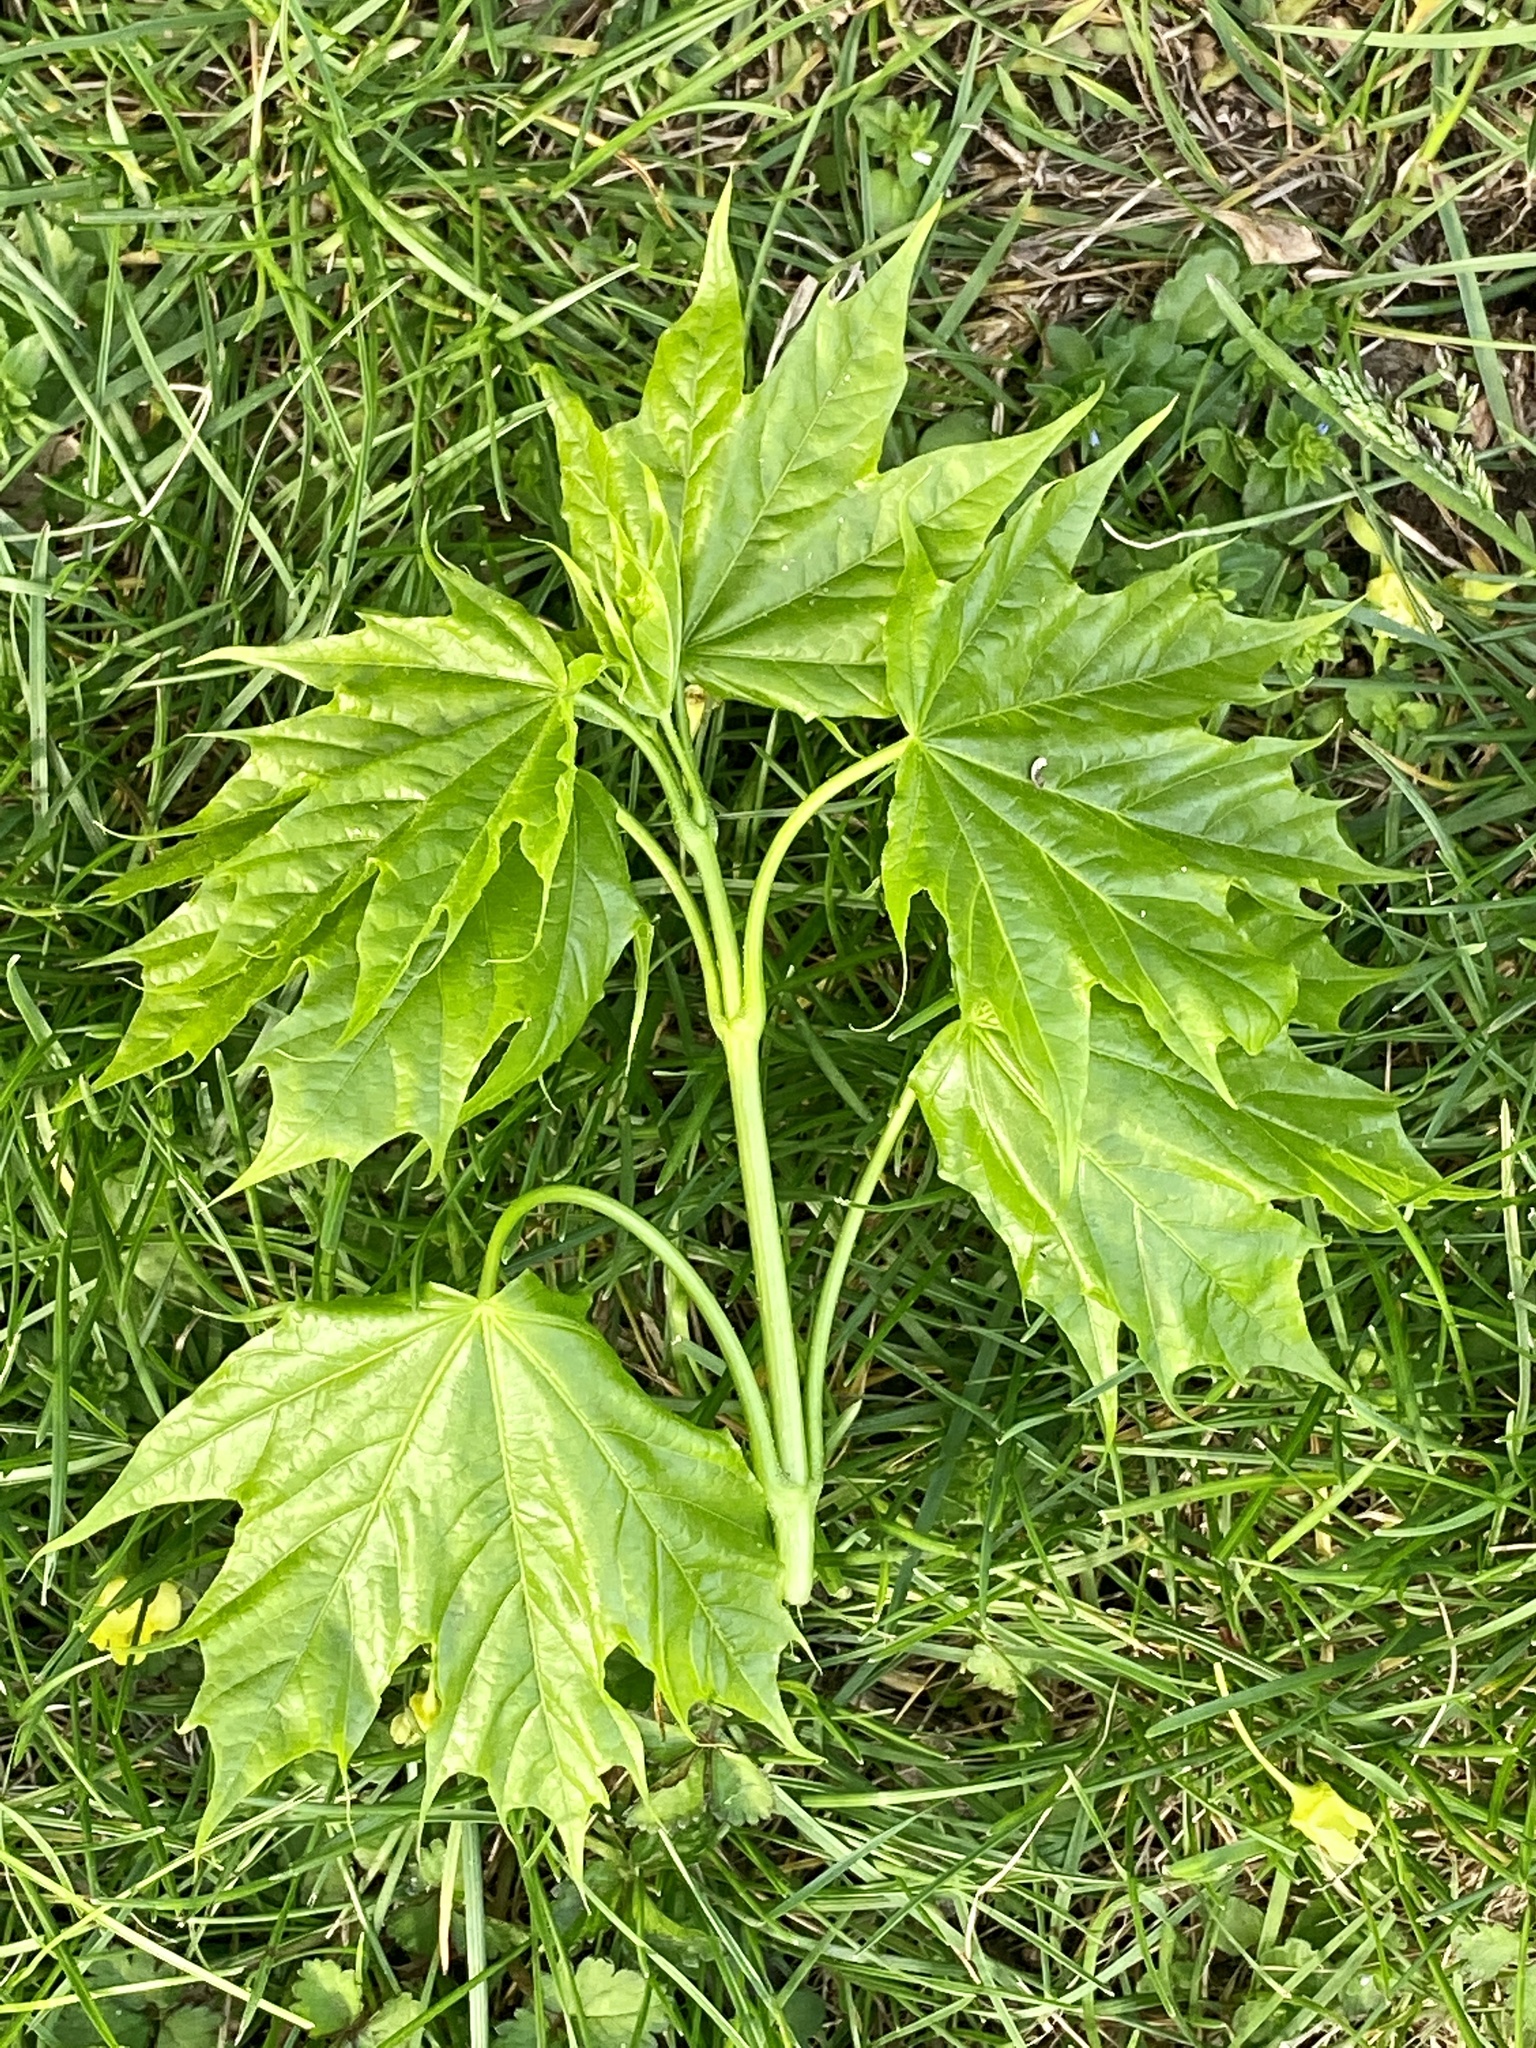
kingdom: Plantae
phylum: Tracheophyta
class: Magnoliopsida
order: Sapindales
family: Sapindaceae
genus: Acer
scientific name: Acer platanoides
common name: Norway maple
